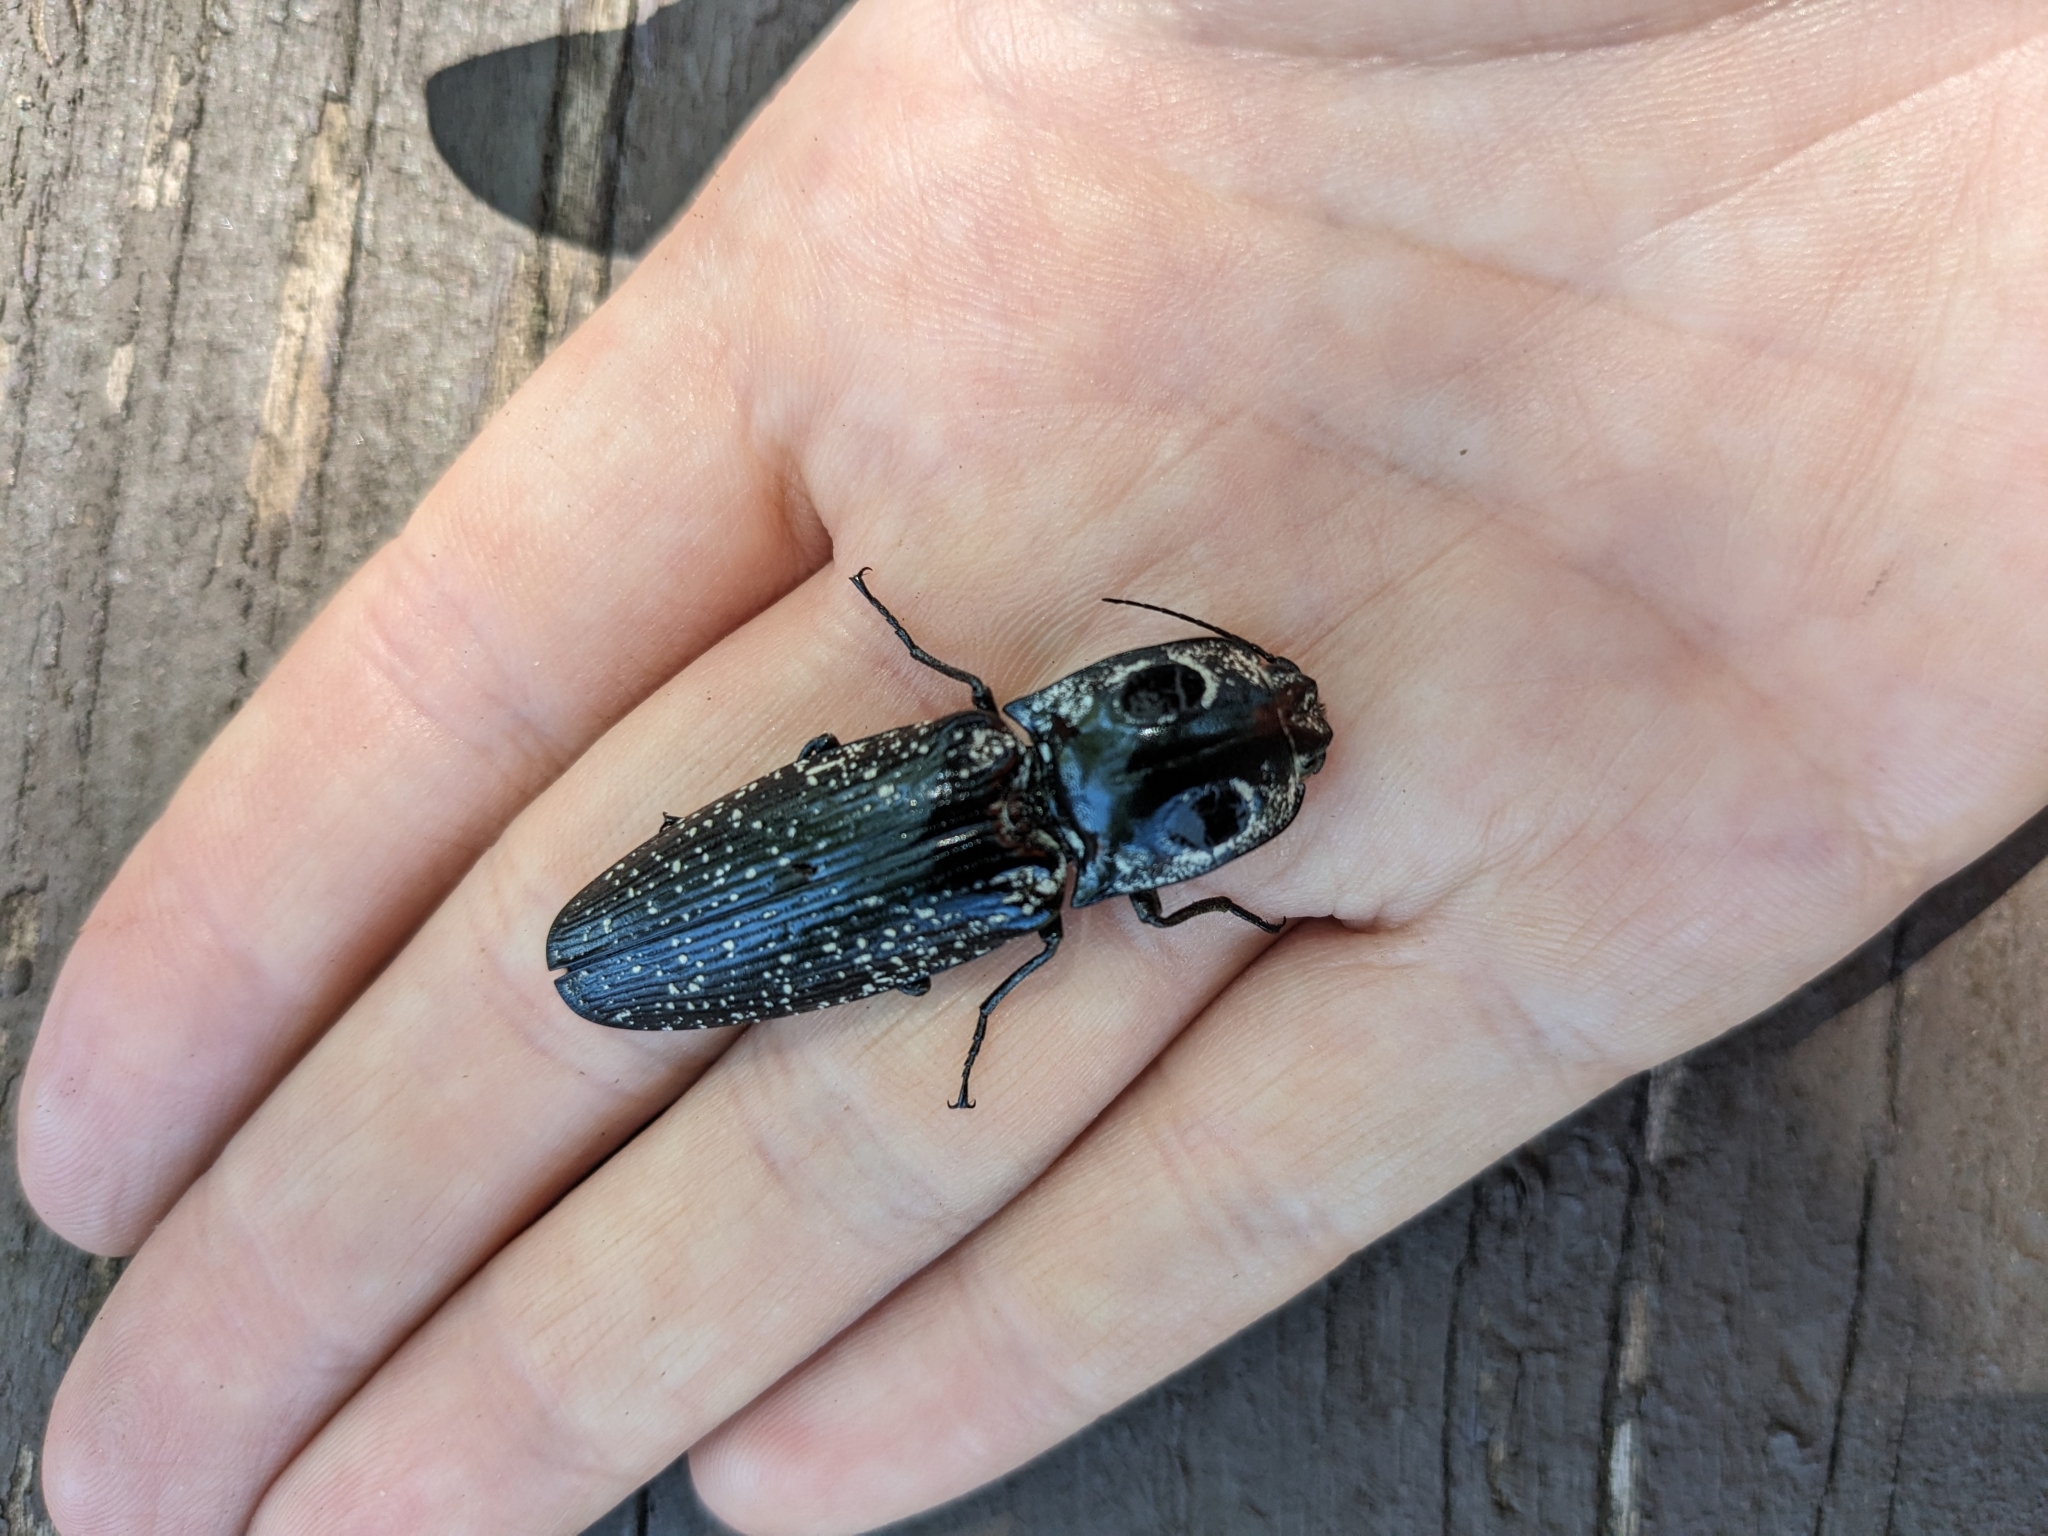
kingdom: Animalia
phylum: Arthropoda
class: Insecta
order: Coleoptera
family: Elateridae
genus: Alaus
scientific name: Alaus oculatus
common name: Eastern eyed click beetle
